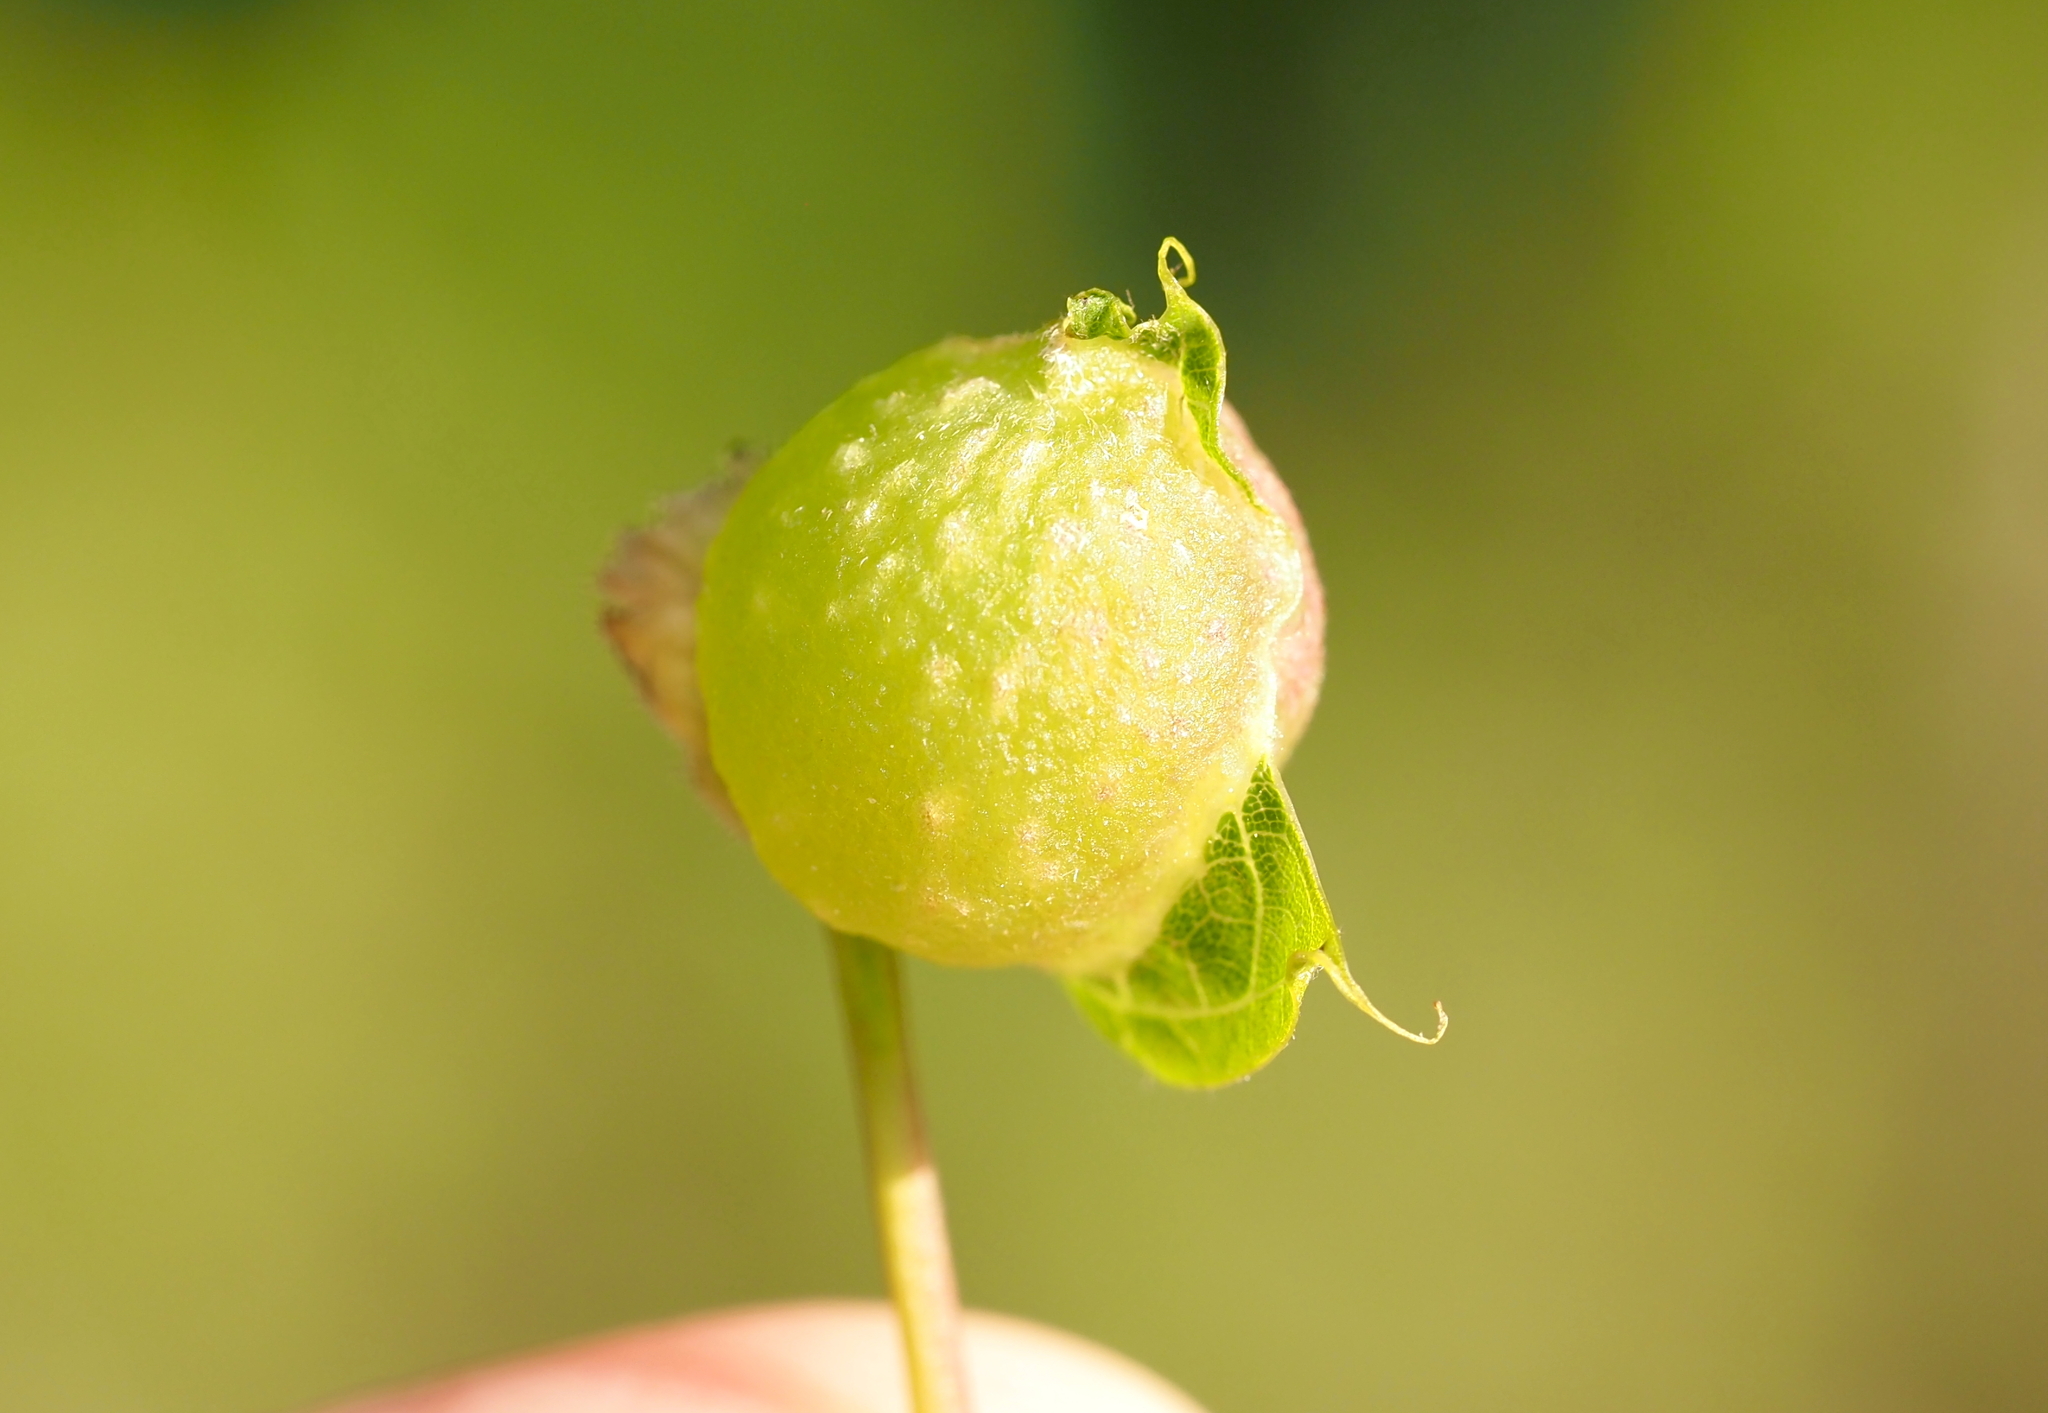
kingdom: Animalia
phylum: Arthropoda
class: Insecta
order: Hymenoptera
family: Cynipidae
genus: Dryocosmus
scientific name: Dryocosmus quercuspalustris
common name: Succulent oak gall wasp
